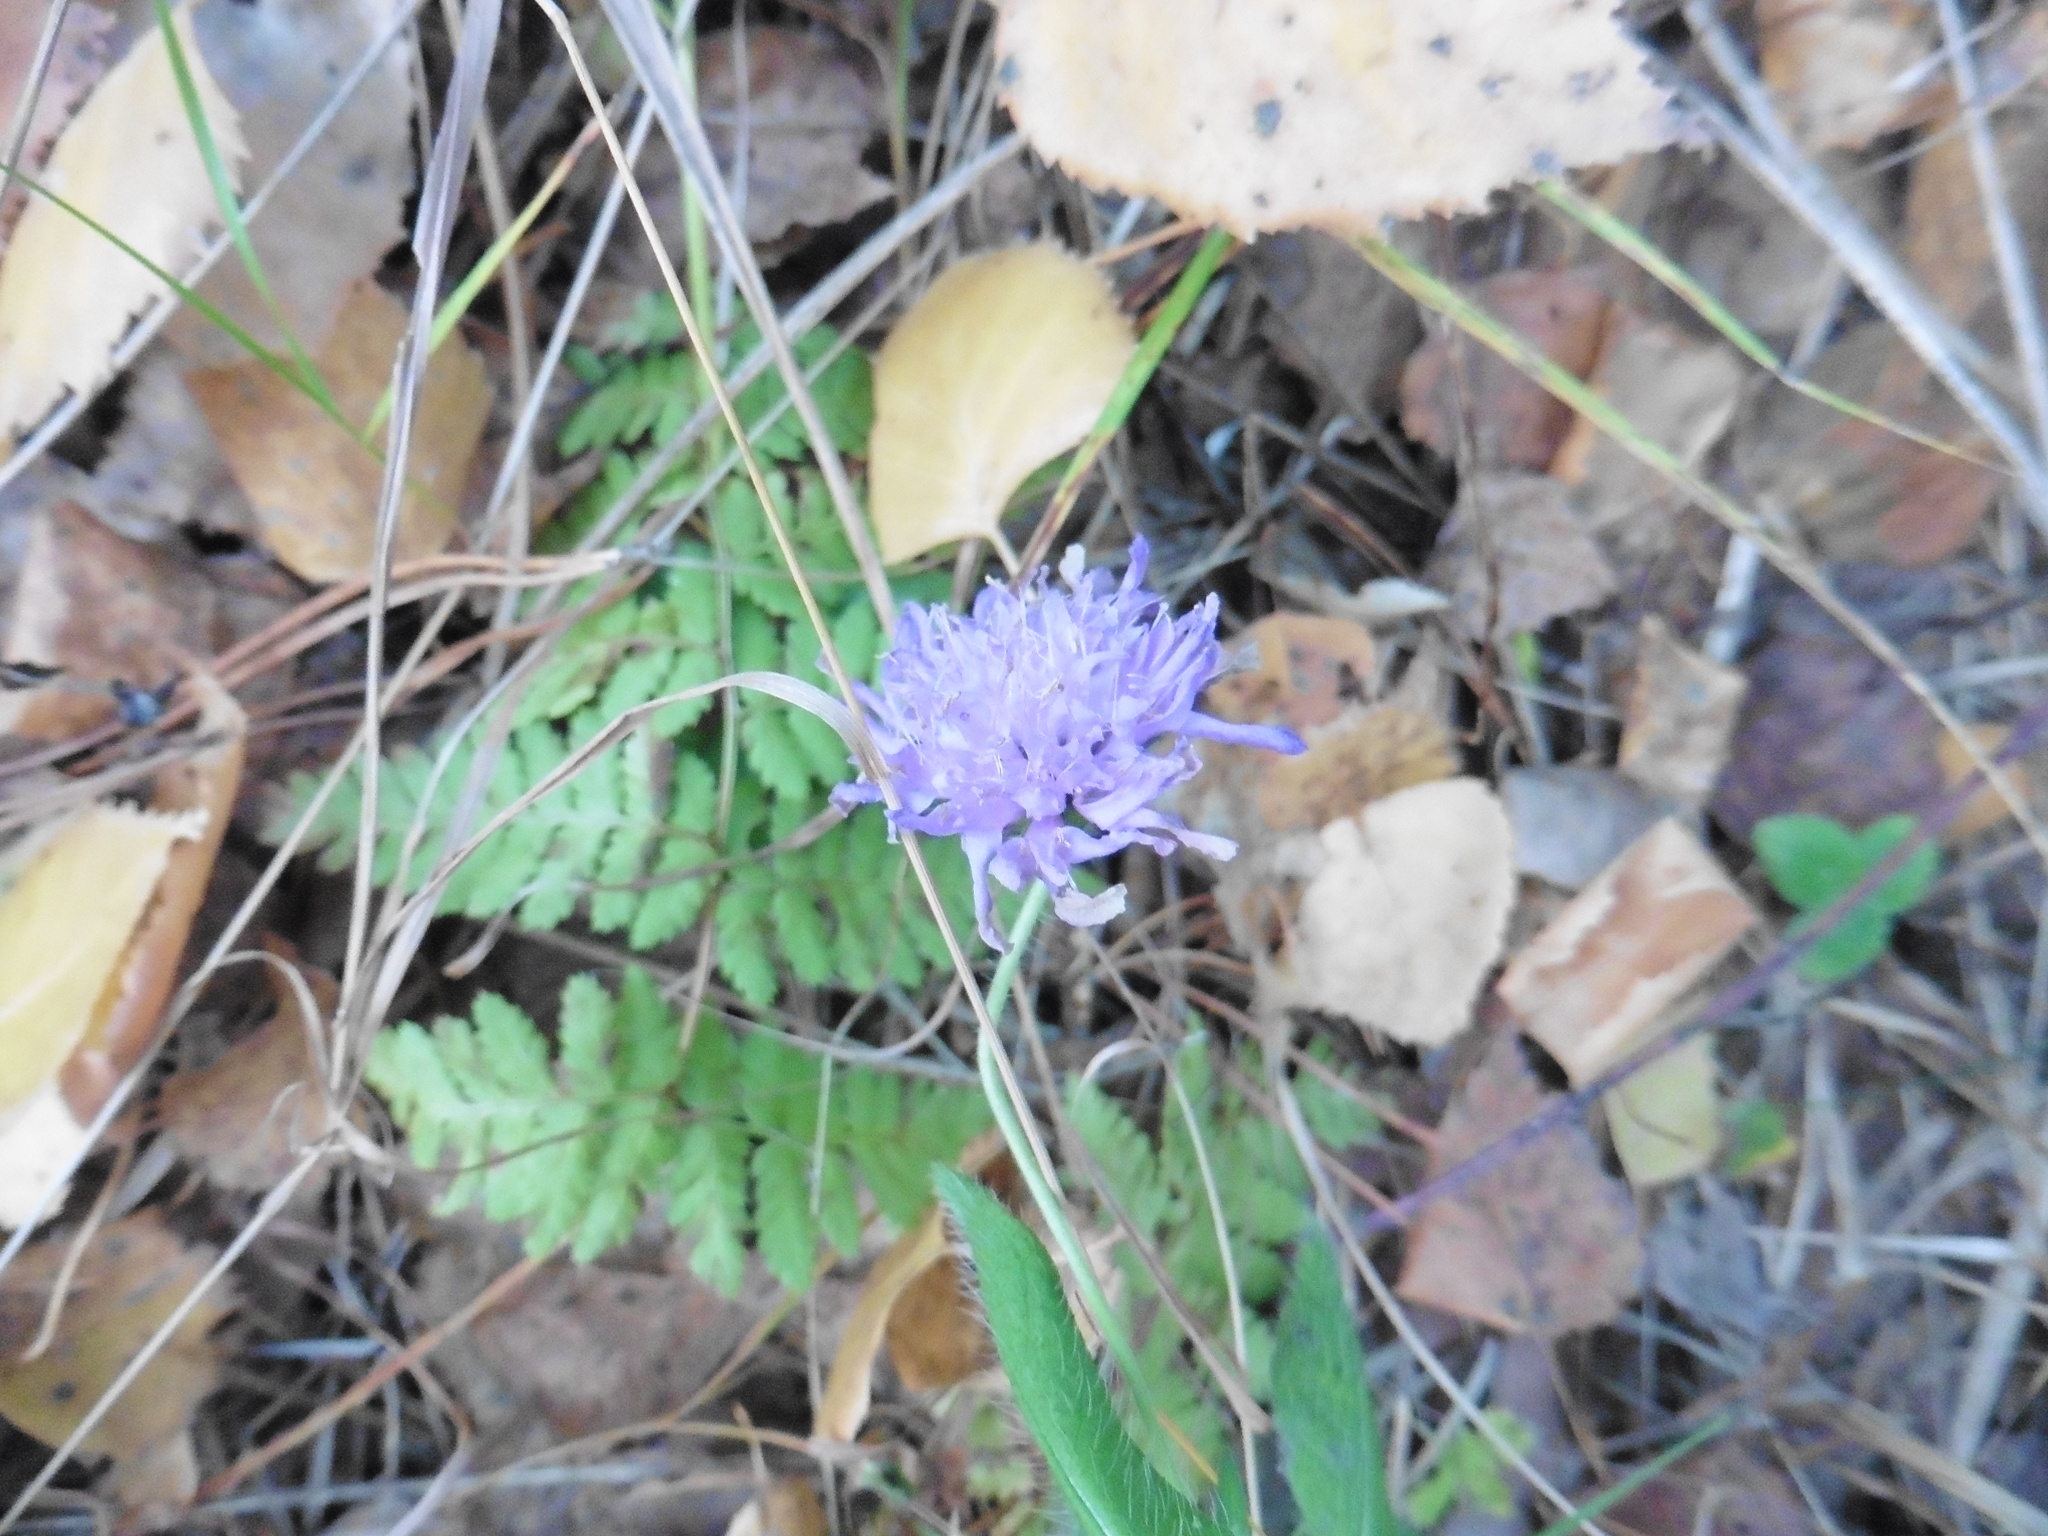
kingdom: Plantae
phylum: Tracheophyta
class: Magnoliopsida
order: Dipsacales
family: Caprifoliaceae
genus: Knautia
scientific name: Knautia arvensis
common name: Field scabiosa
